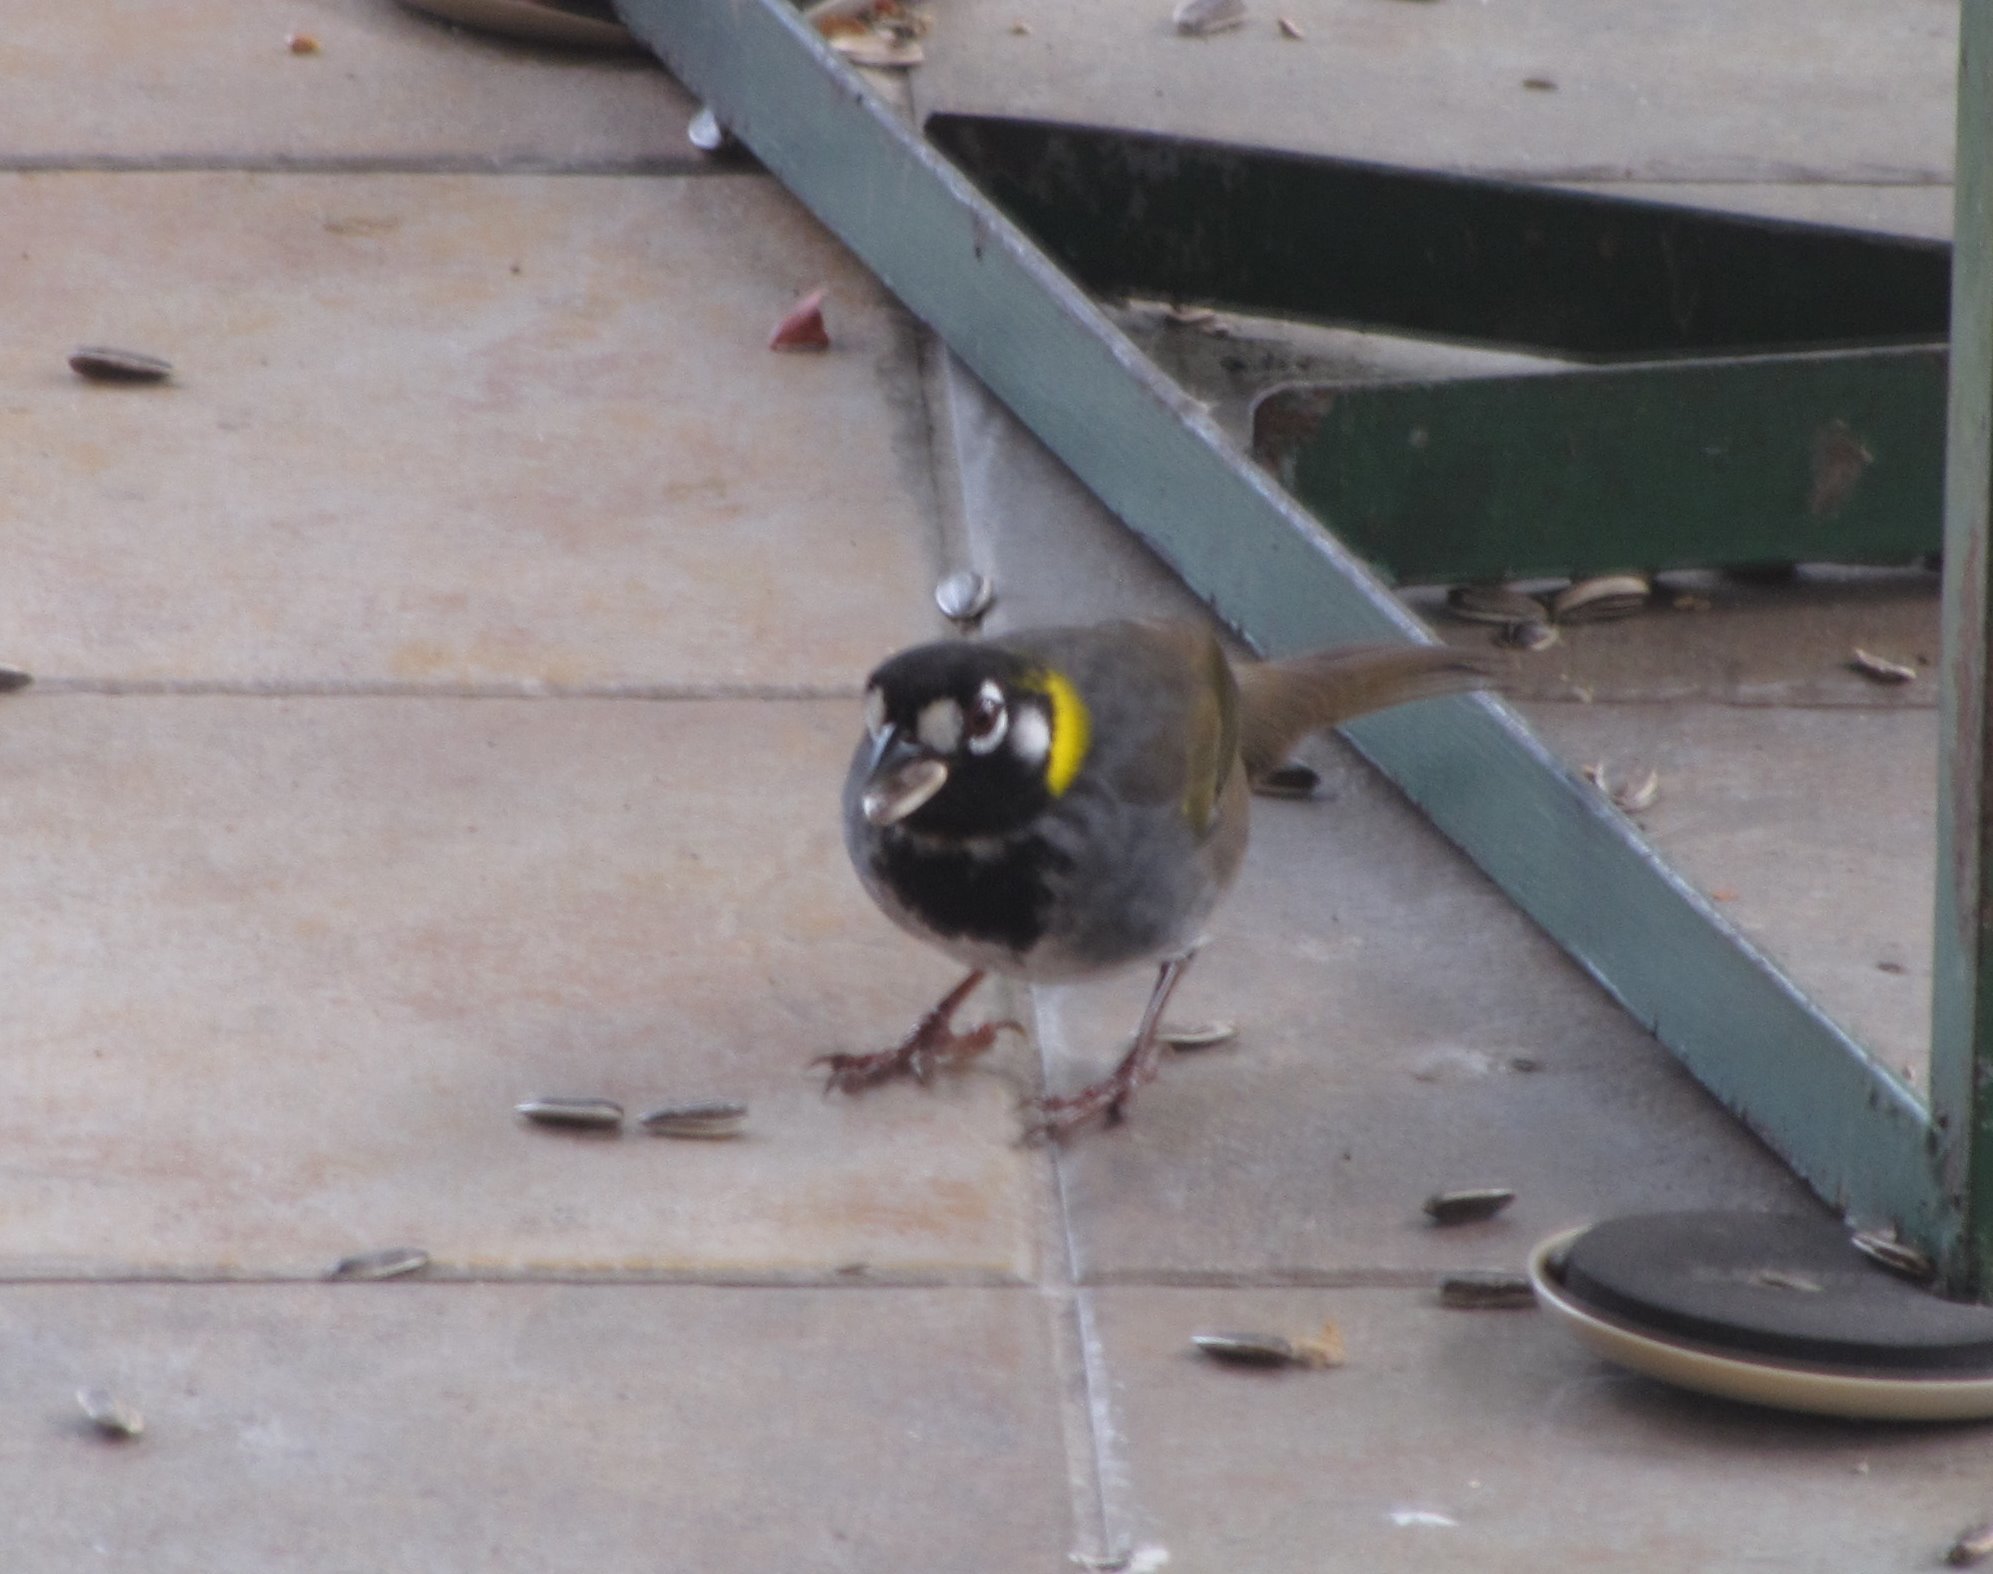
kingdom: Animalia
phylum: Chordata
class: Aves
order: Passeriformes
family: Passerellidae
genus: Melozone
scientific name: Melozone leucotis
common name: White-eared ground-sparrow
